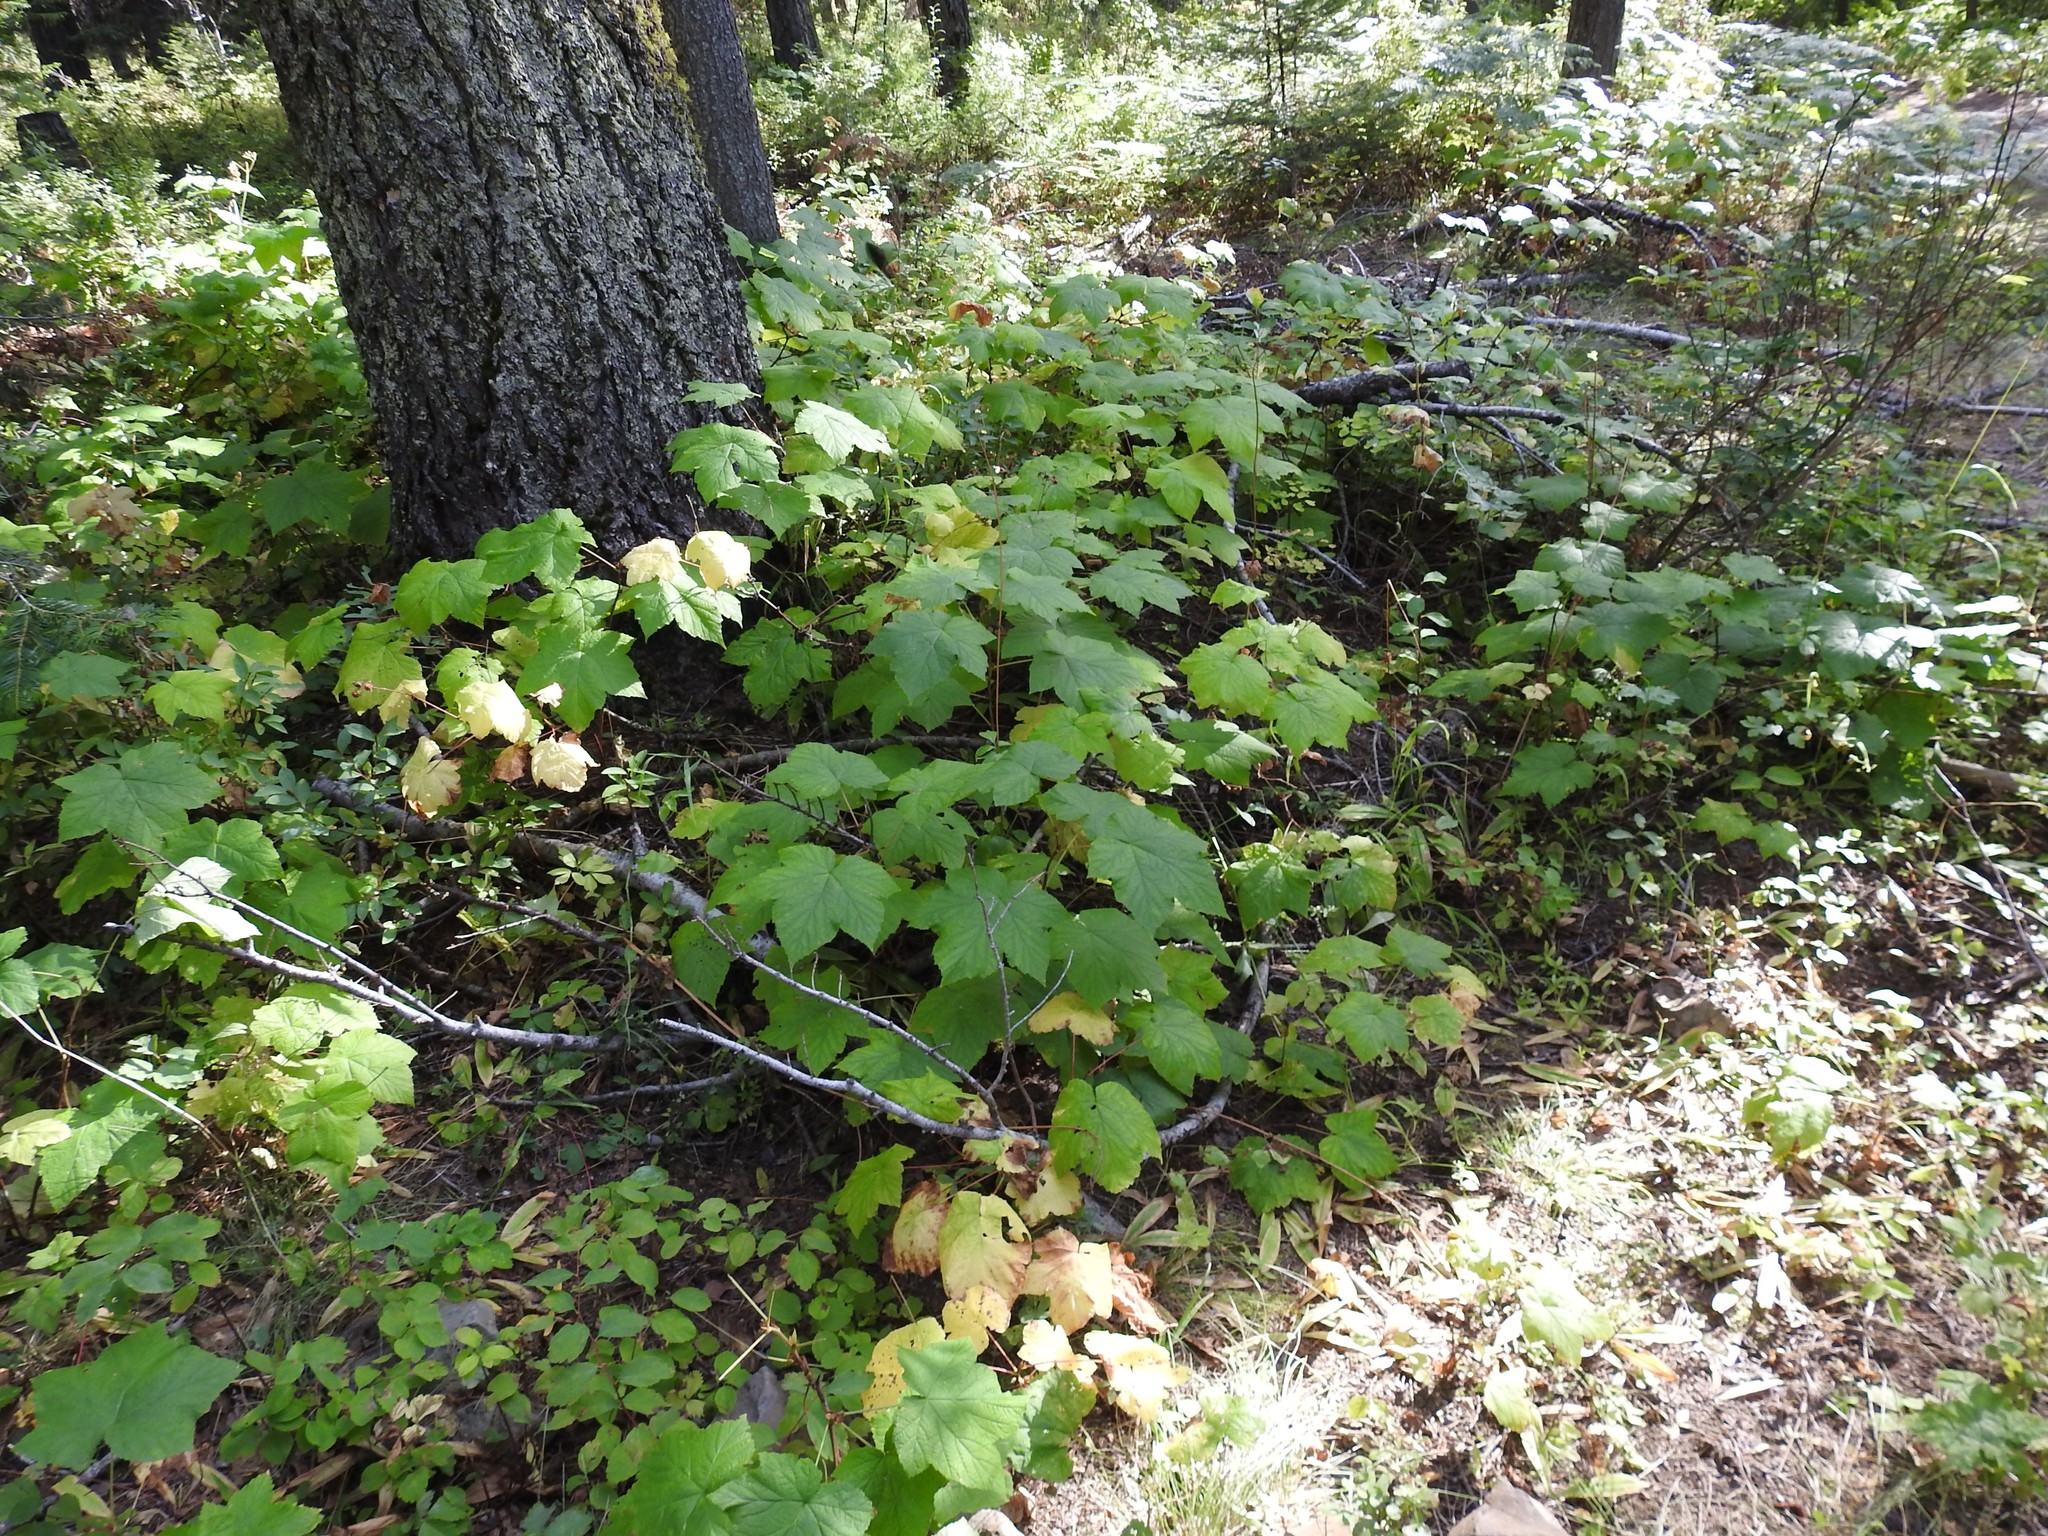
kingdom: Plantae
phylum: Tracheophyta
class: Magnoliopsida
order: Rosales
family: Rosaceae
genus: Rubus
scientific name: Rubus parviflorus
